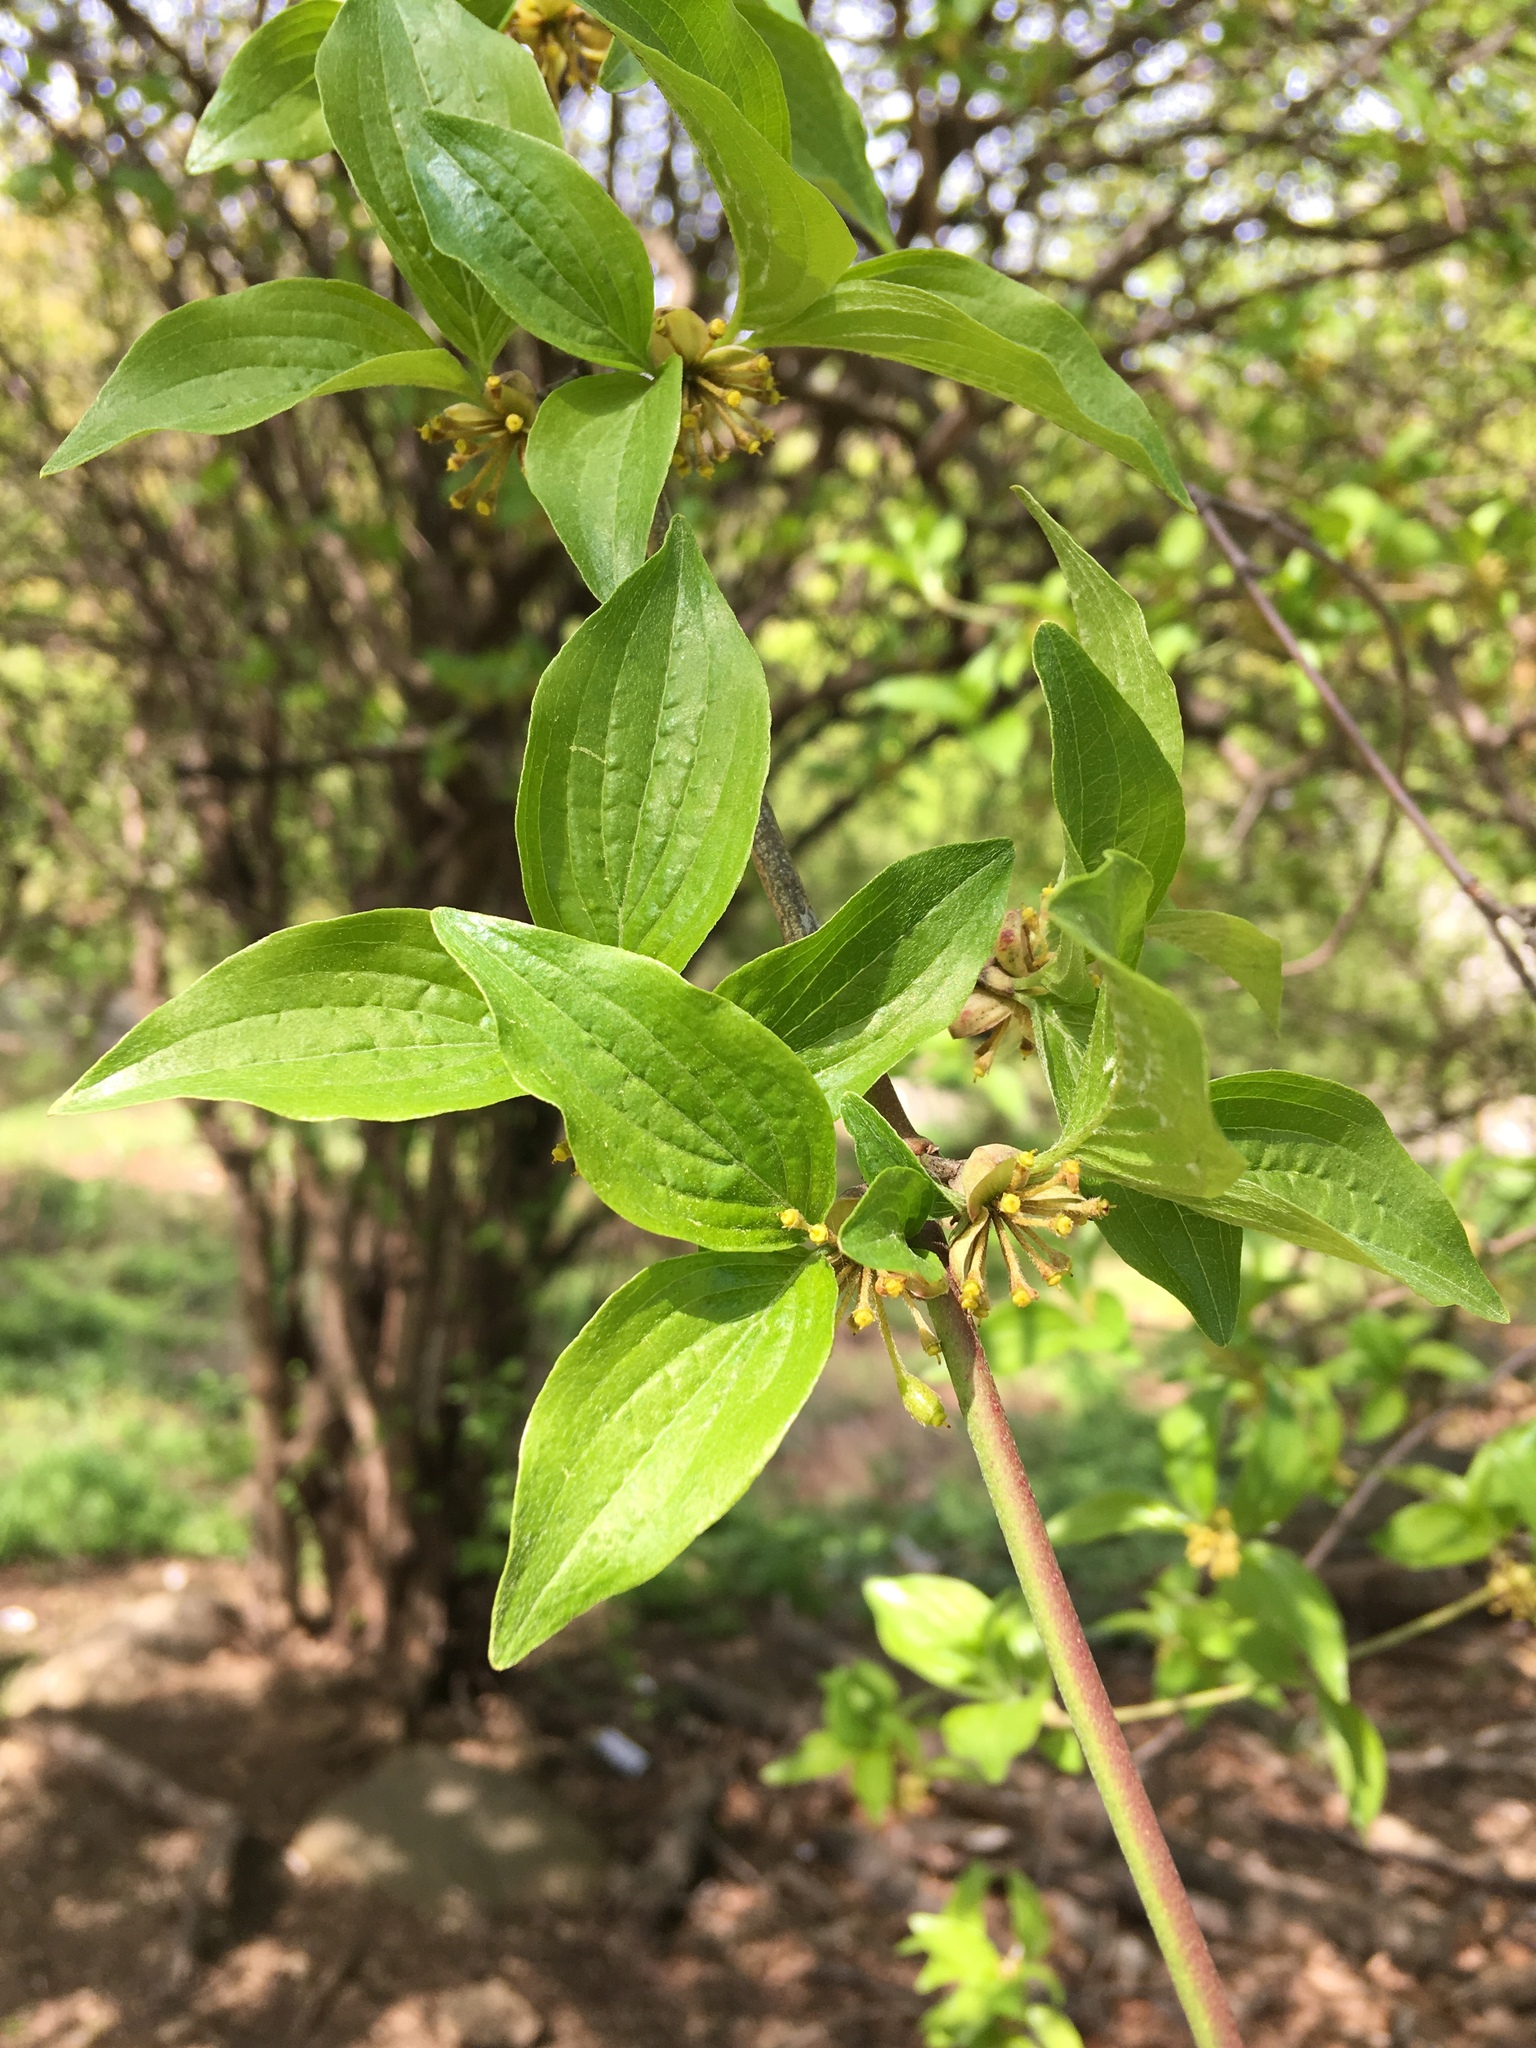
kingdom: Plantae
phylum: Tracheophyta
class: Magnoliopsida
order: Cornales
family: Cornaceae
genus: Cornus
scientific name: Cornus mas
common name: Cornelian-cherry
